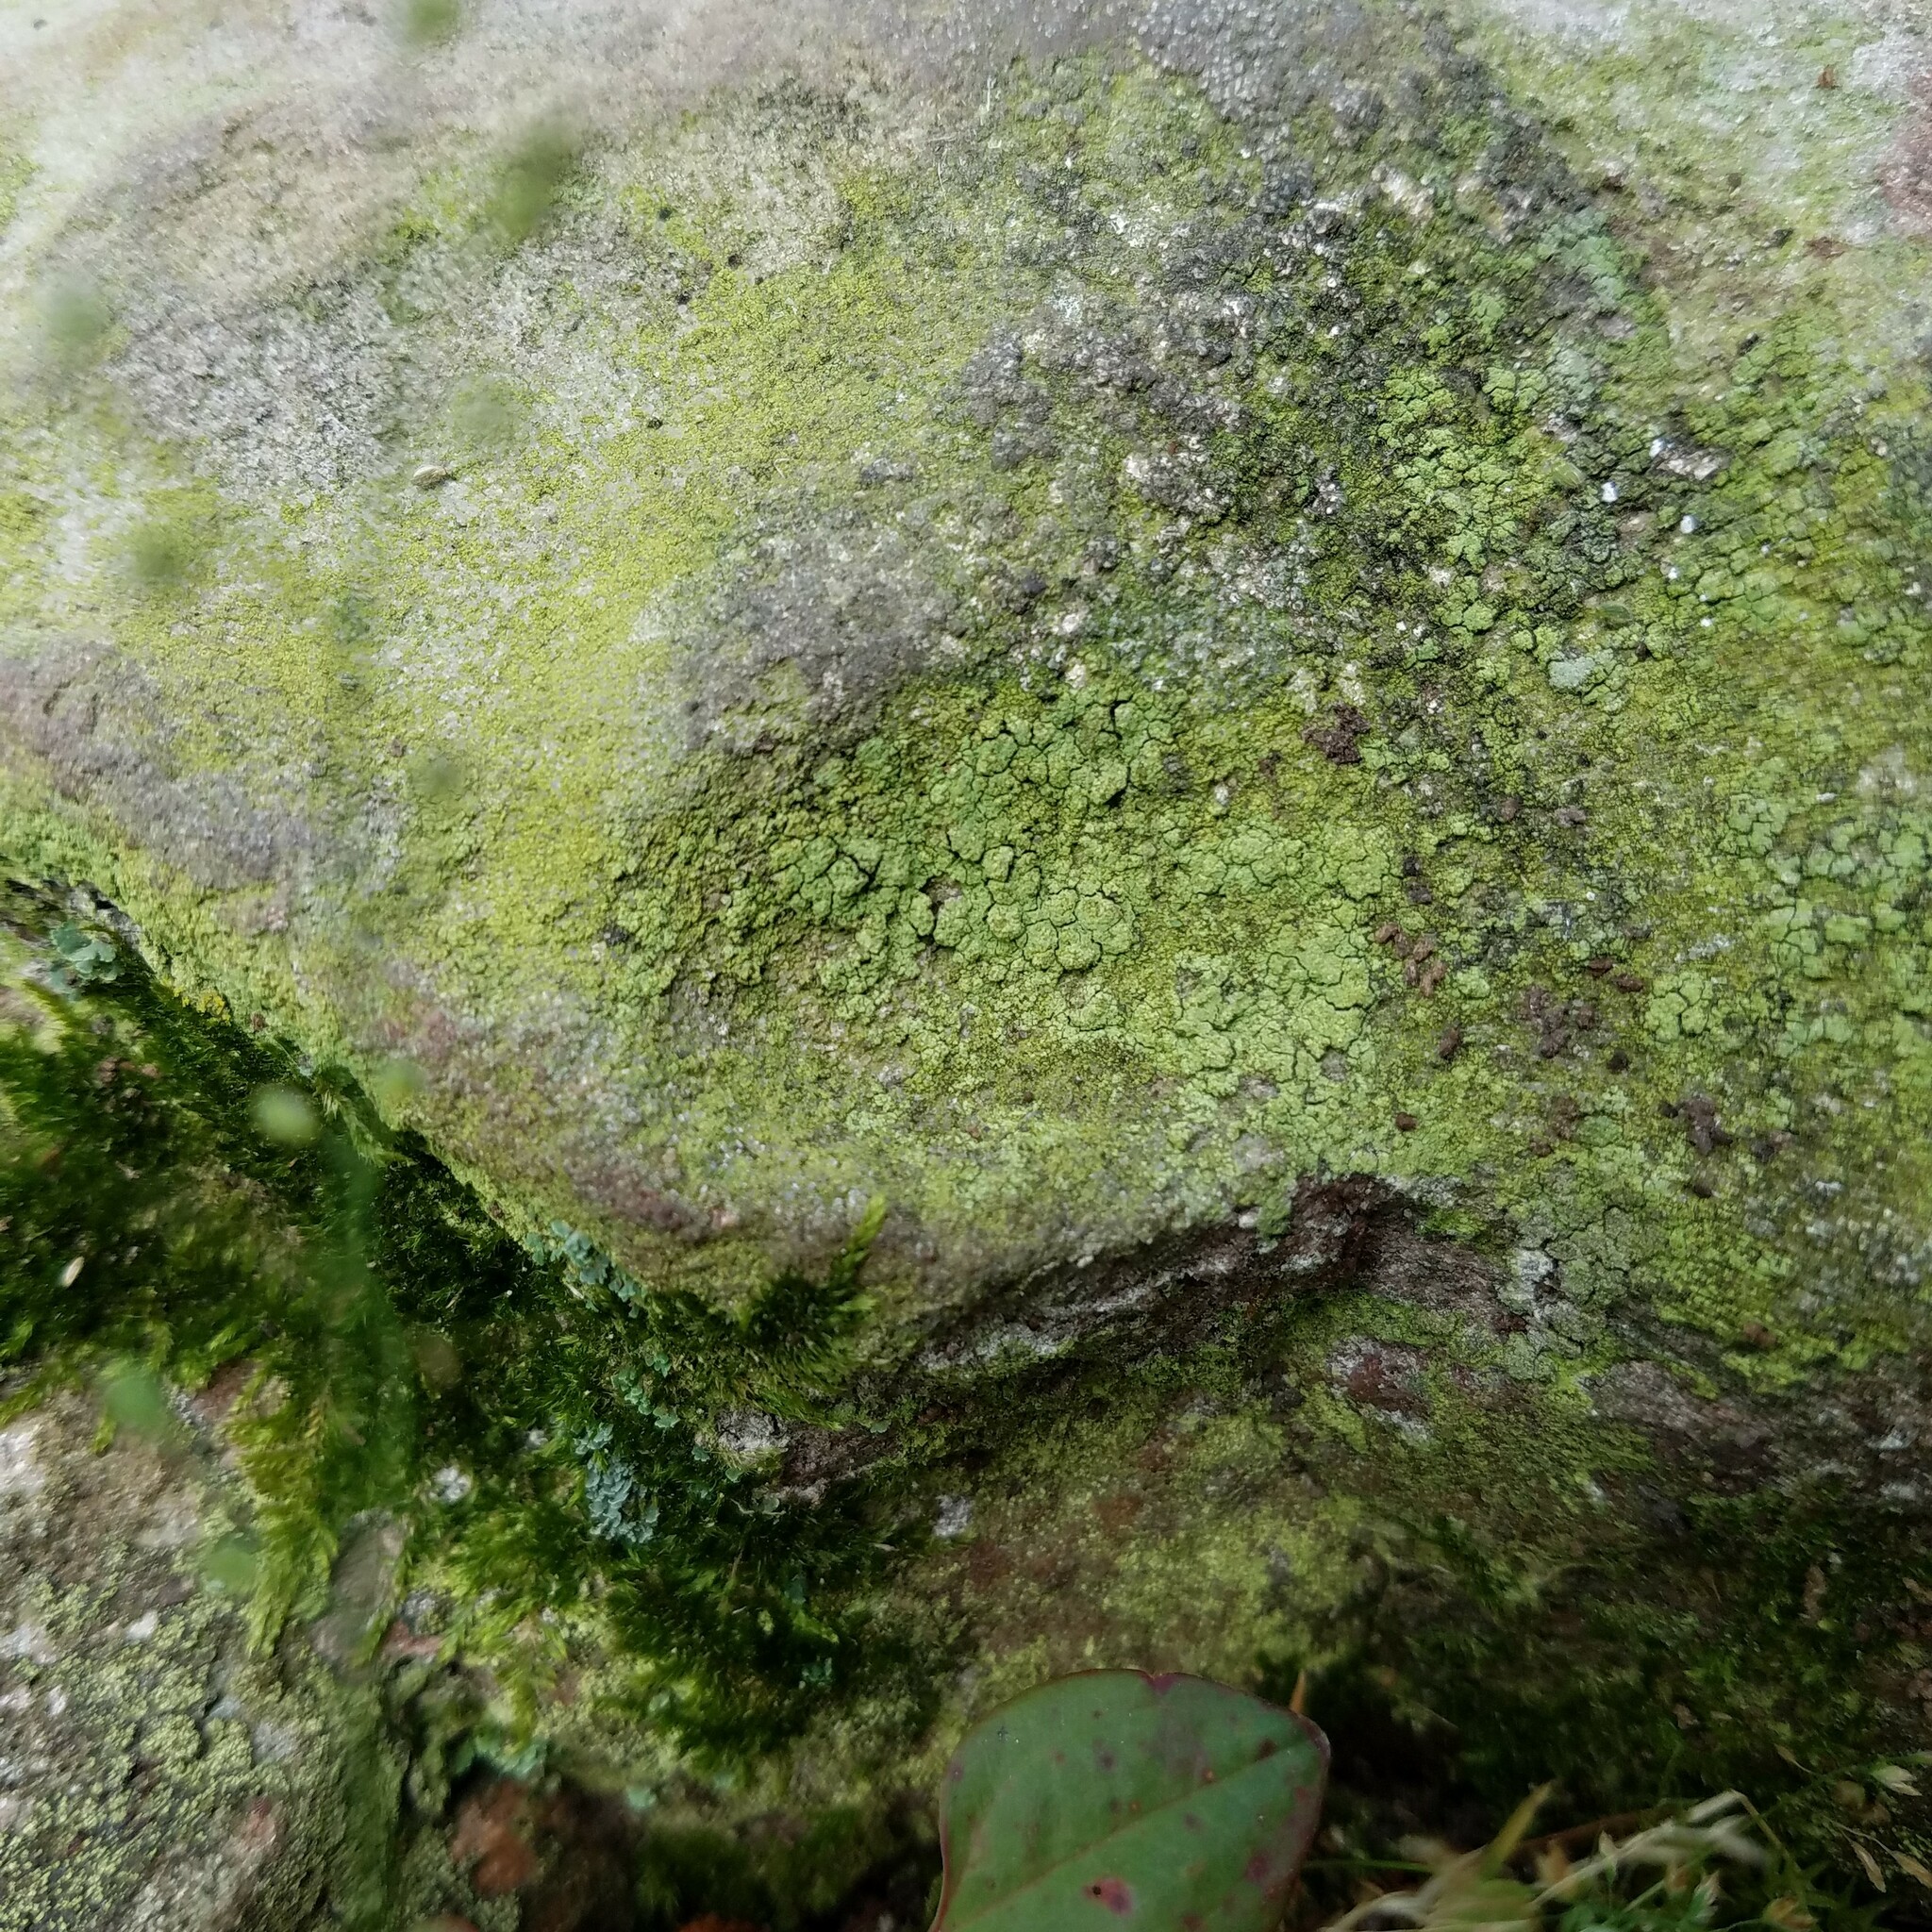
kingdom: Fungi
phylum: Ascomycota
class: Lecanoromycetes
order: Lecanorales
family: Psilolechiaceae
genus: Psilolechia
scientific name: Psilolechia lucida
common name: Sulphur dust lichen
